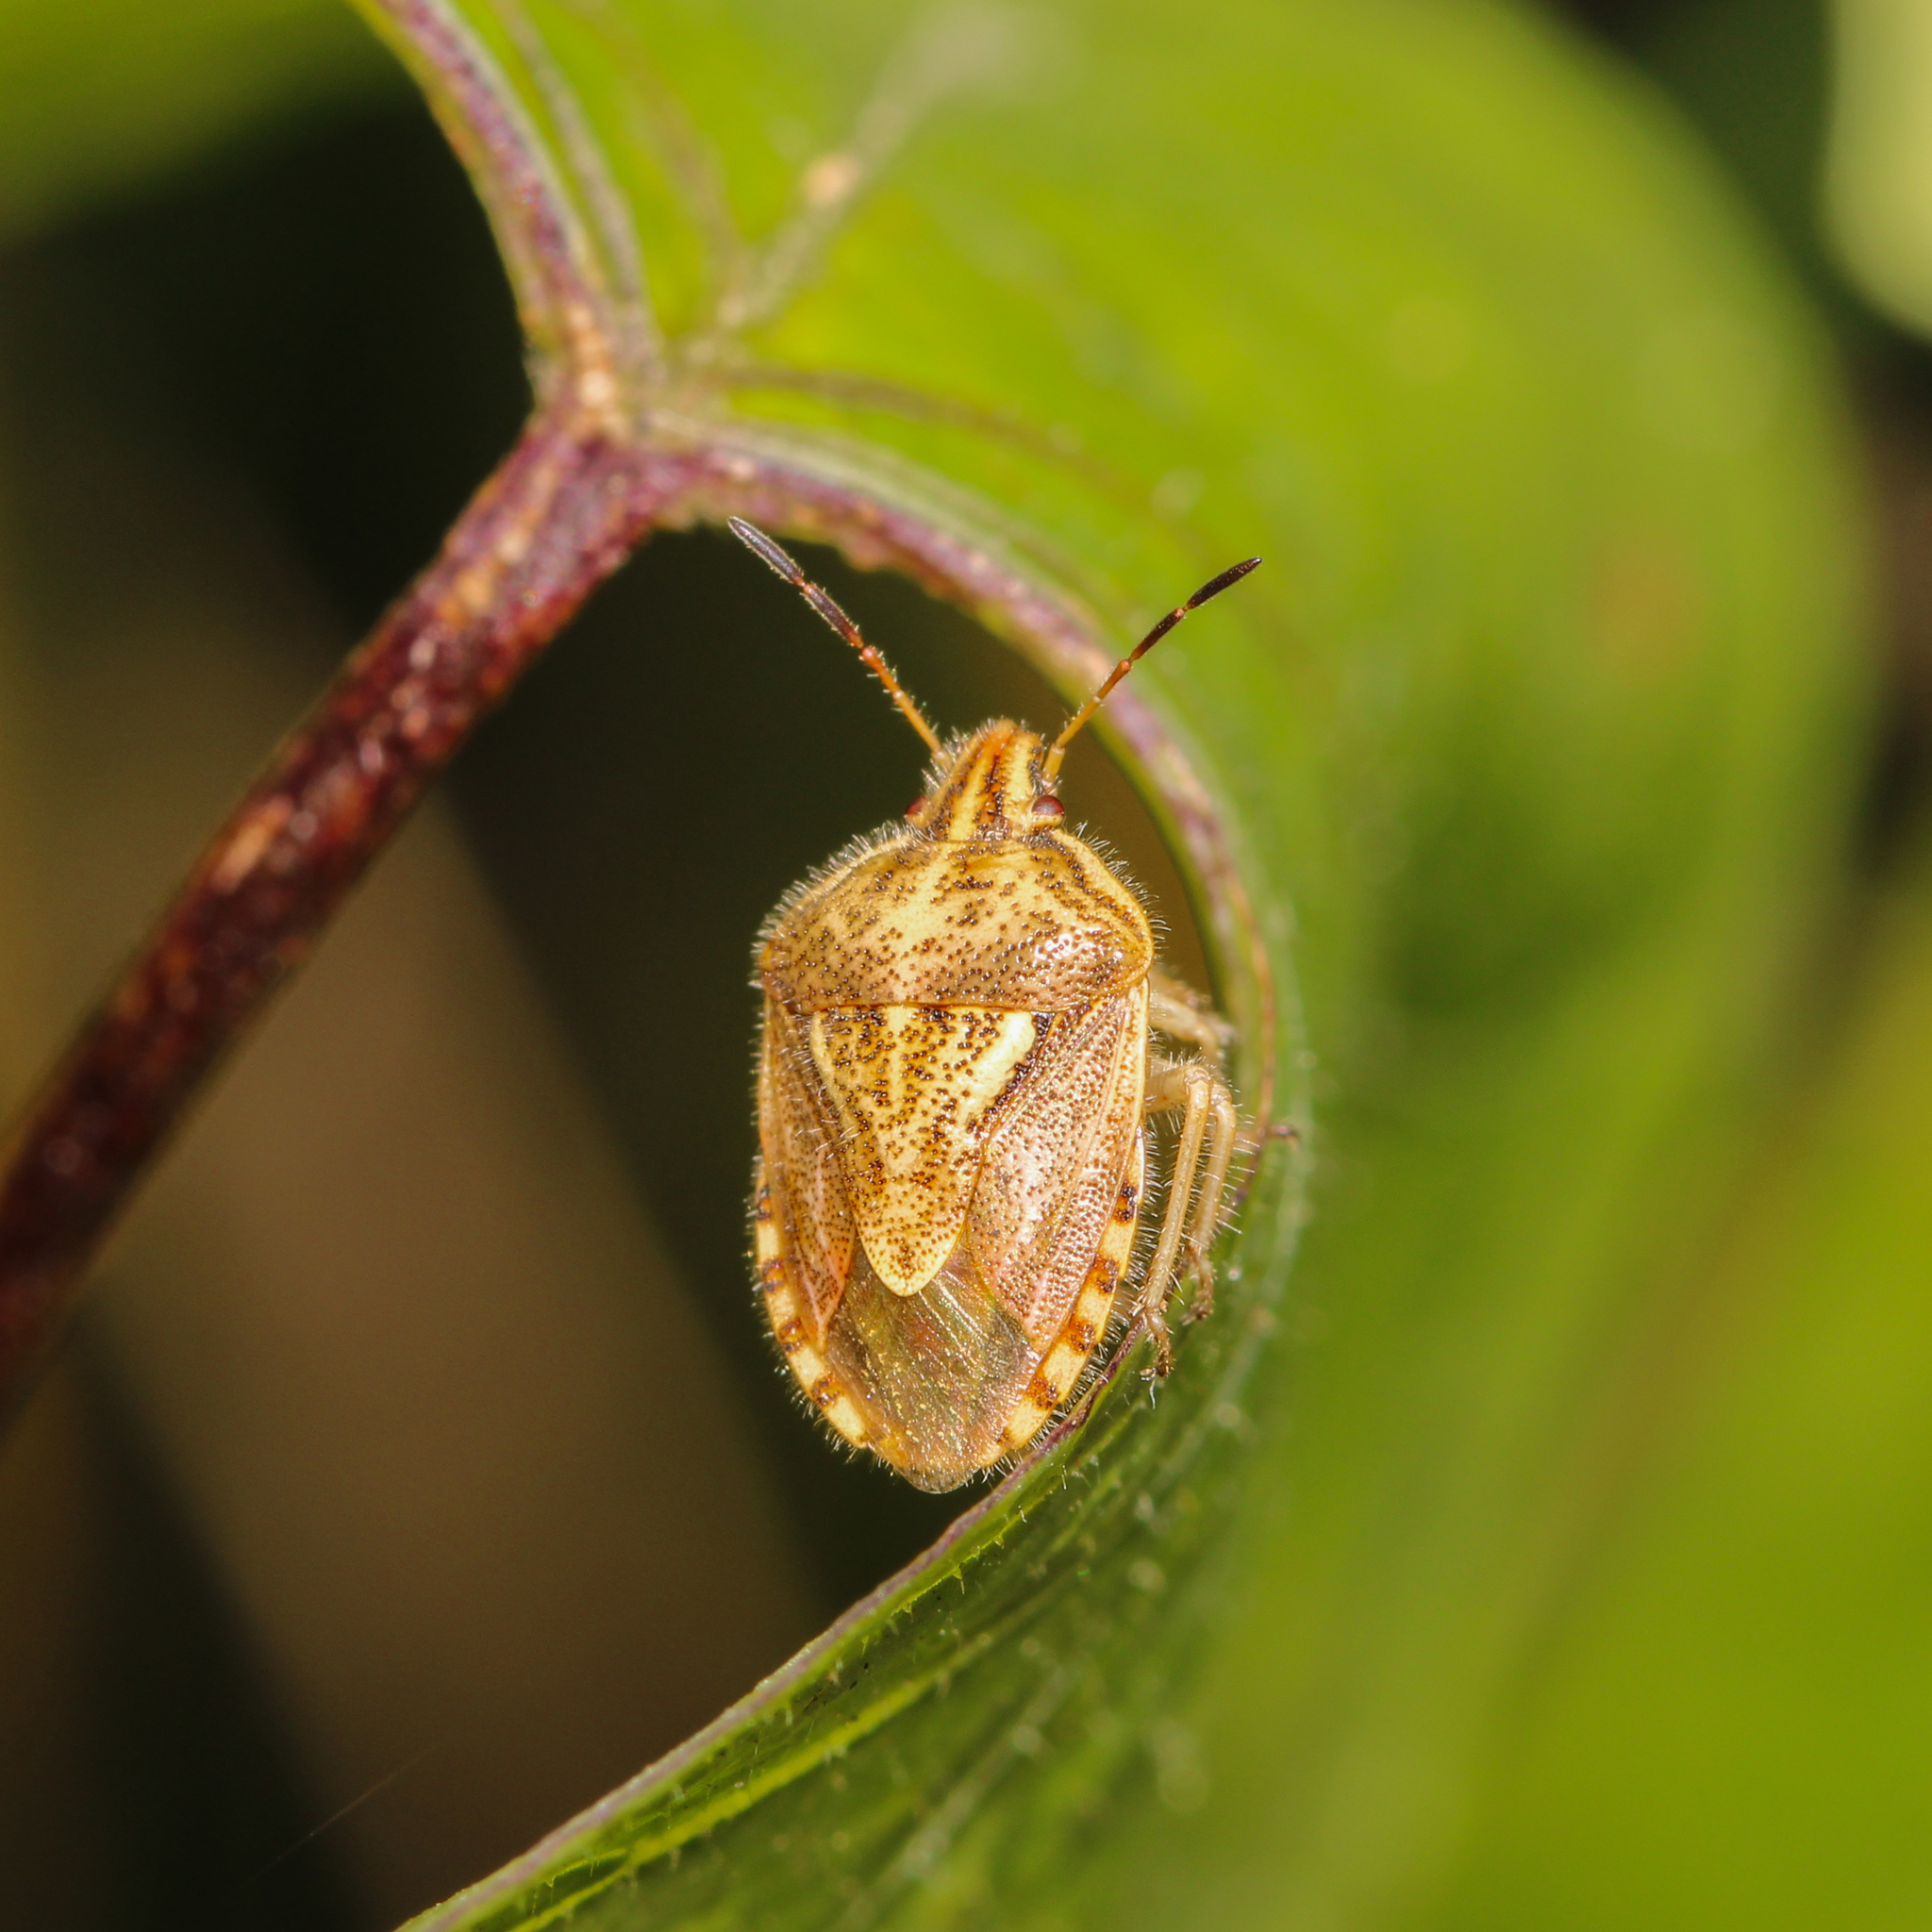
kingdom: Animalia
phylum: Arthropoda
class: Insecta
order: Hemiptera
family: Pentatomidae
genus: Trichopepla
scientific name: Trichopepla semivittata
